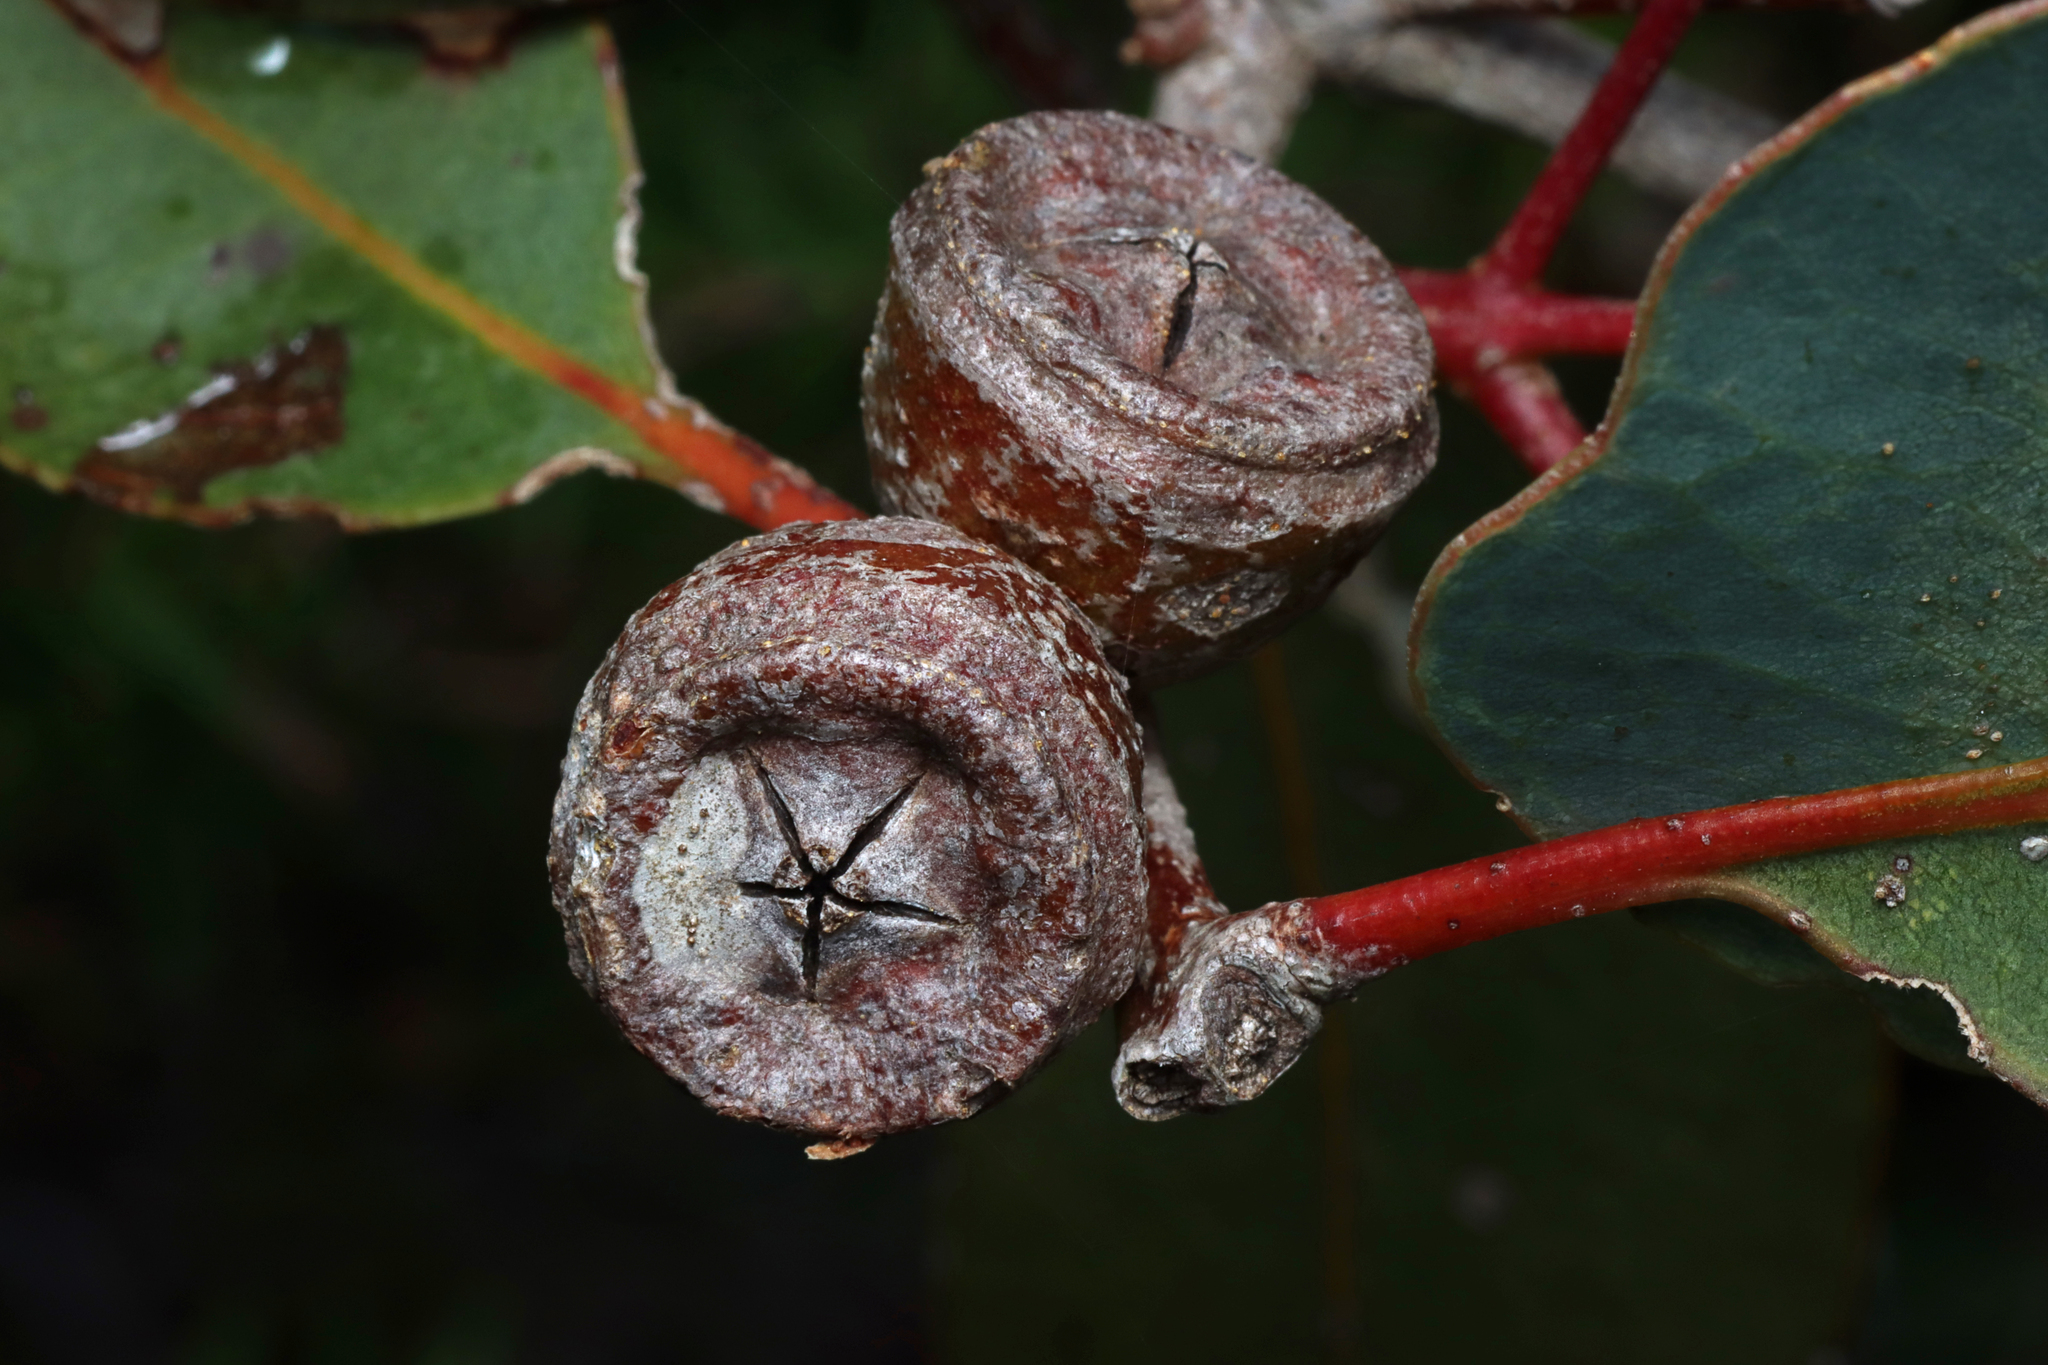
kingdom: Plantae
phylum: Tracheophyta
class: Magnoliopsida
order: Myrtales
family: Myrtaceae
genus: Eucalyptus
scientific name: Eucalyptus cosmophylla
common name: Bog-gum
